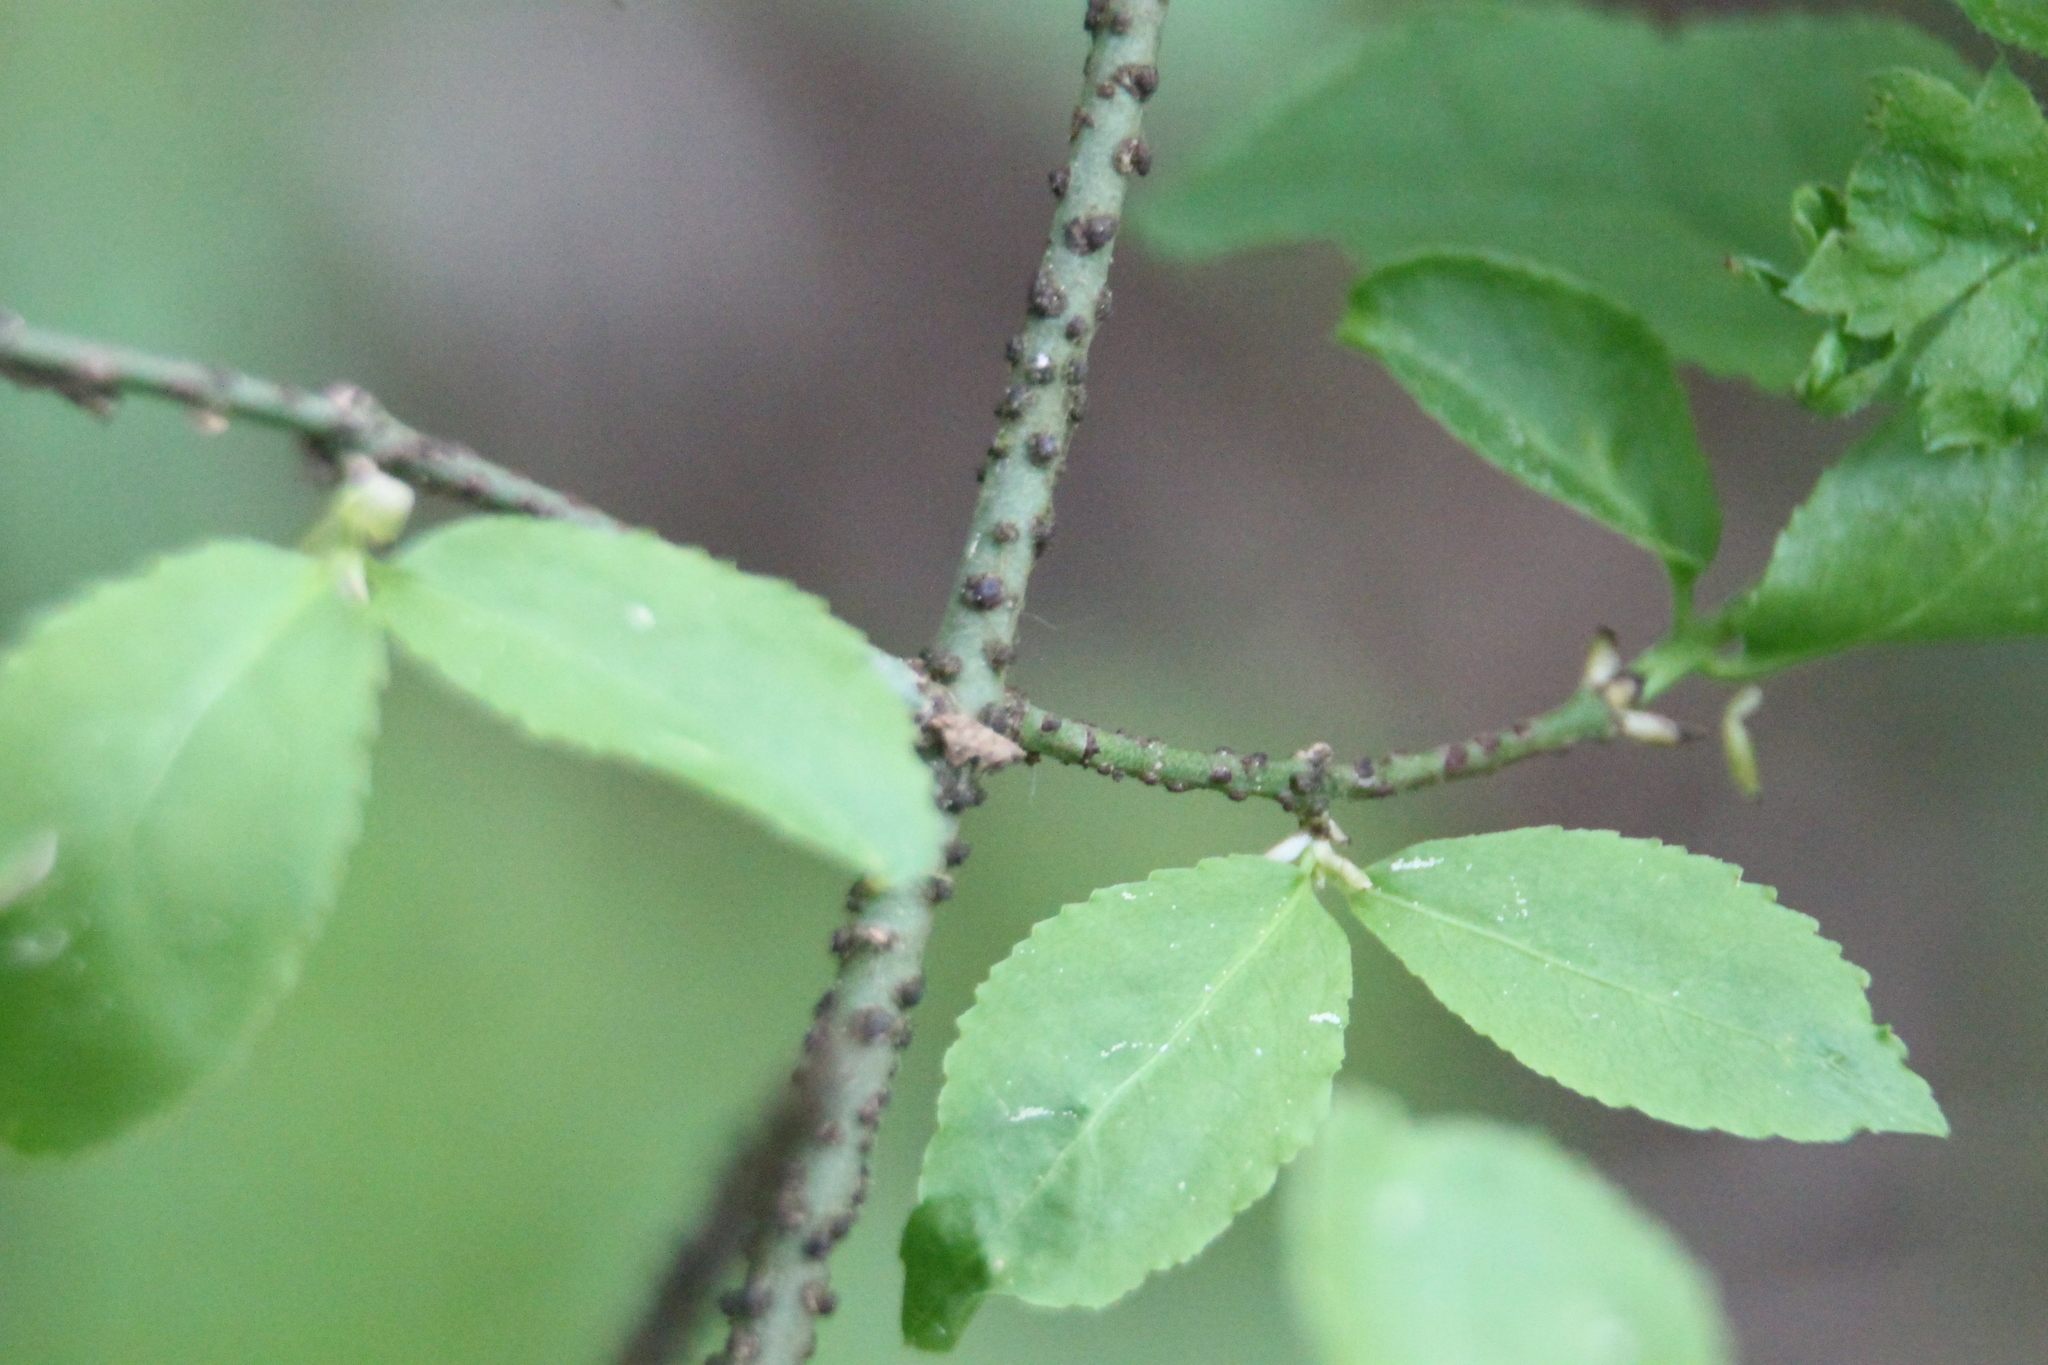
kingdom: Plantae
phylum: Tracheophyta
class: Magnoliopsida
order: Celastrales
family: Celastraceae
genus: Euonymus
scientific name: Euonymus verrucosus
